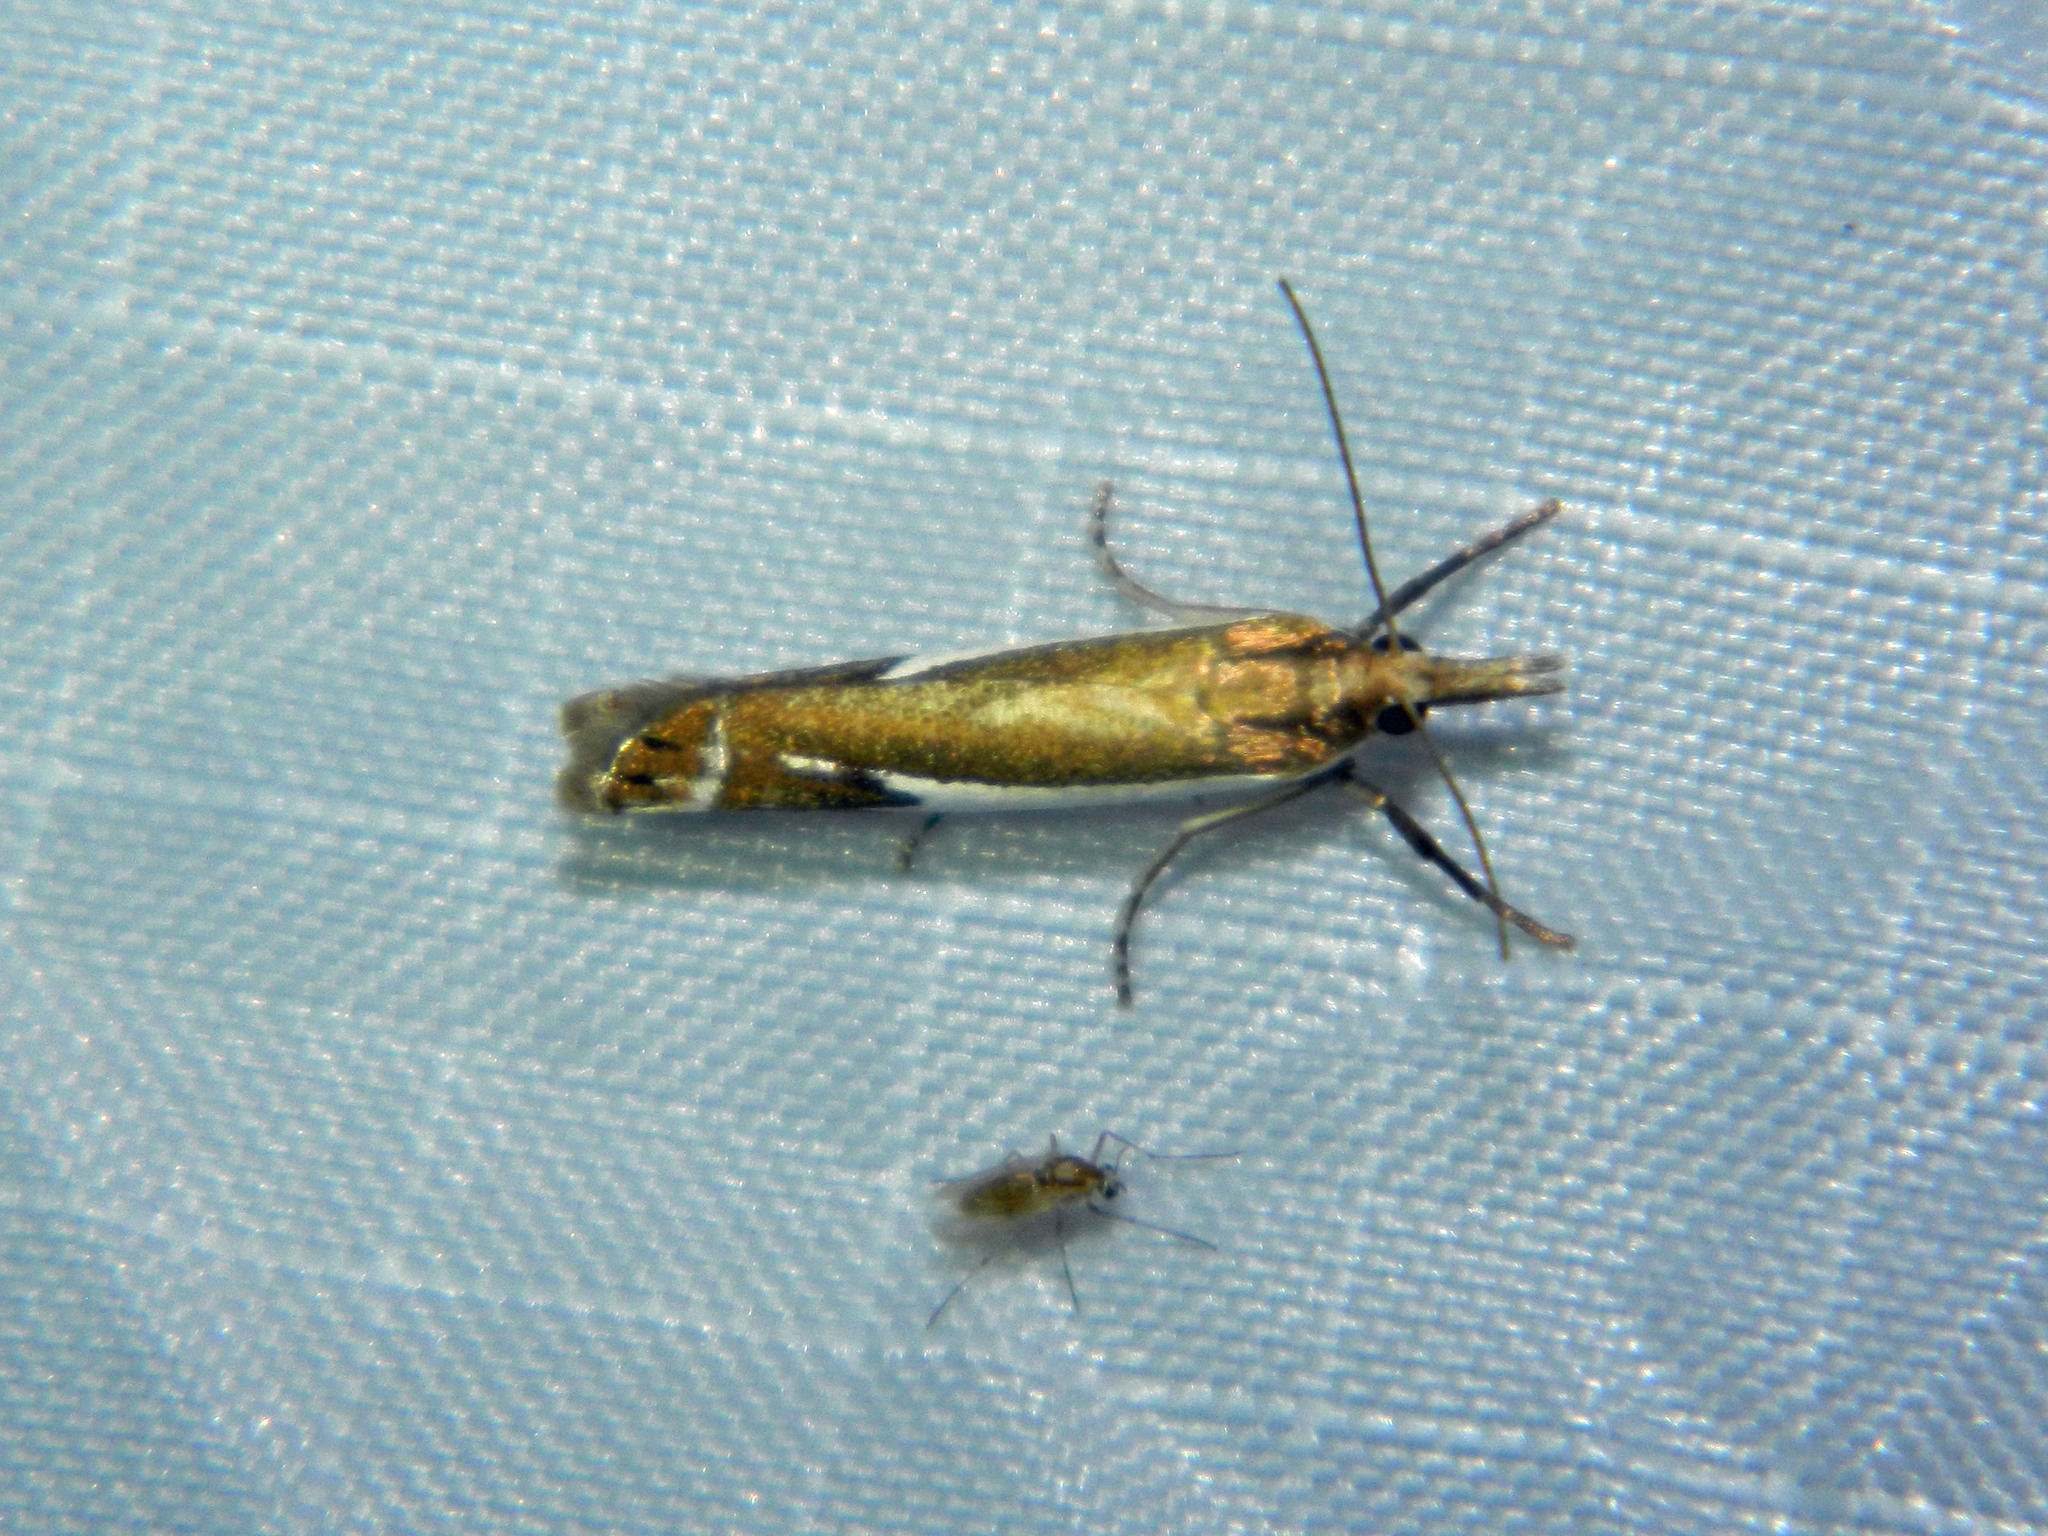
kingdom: Animalia
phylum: Arthropoda
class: Insecta
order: Lepidoptera
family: Crambidae
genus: Crambus
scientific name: Crambus bidens
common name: Forked grass-veneer
